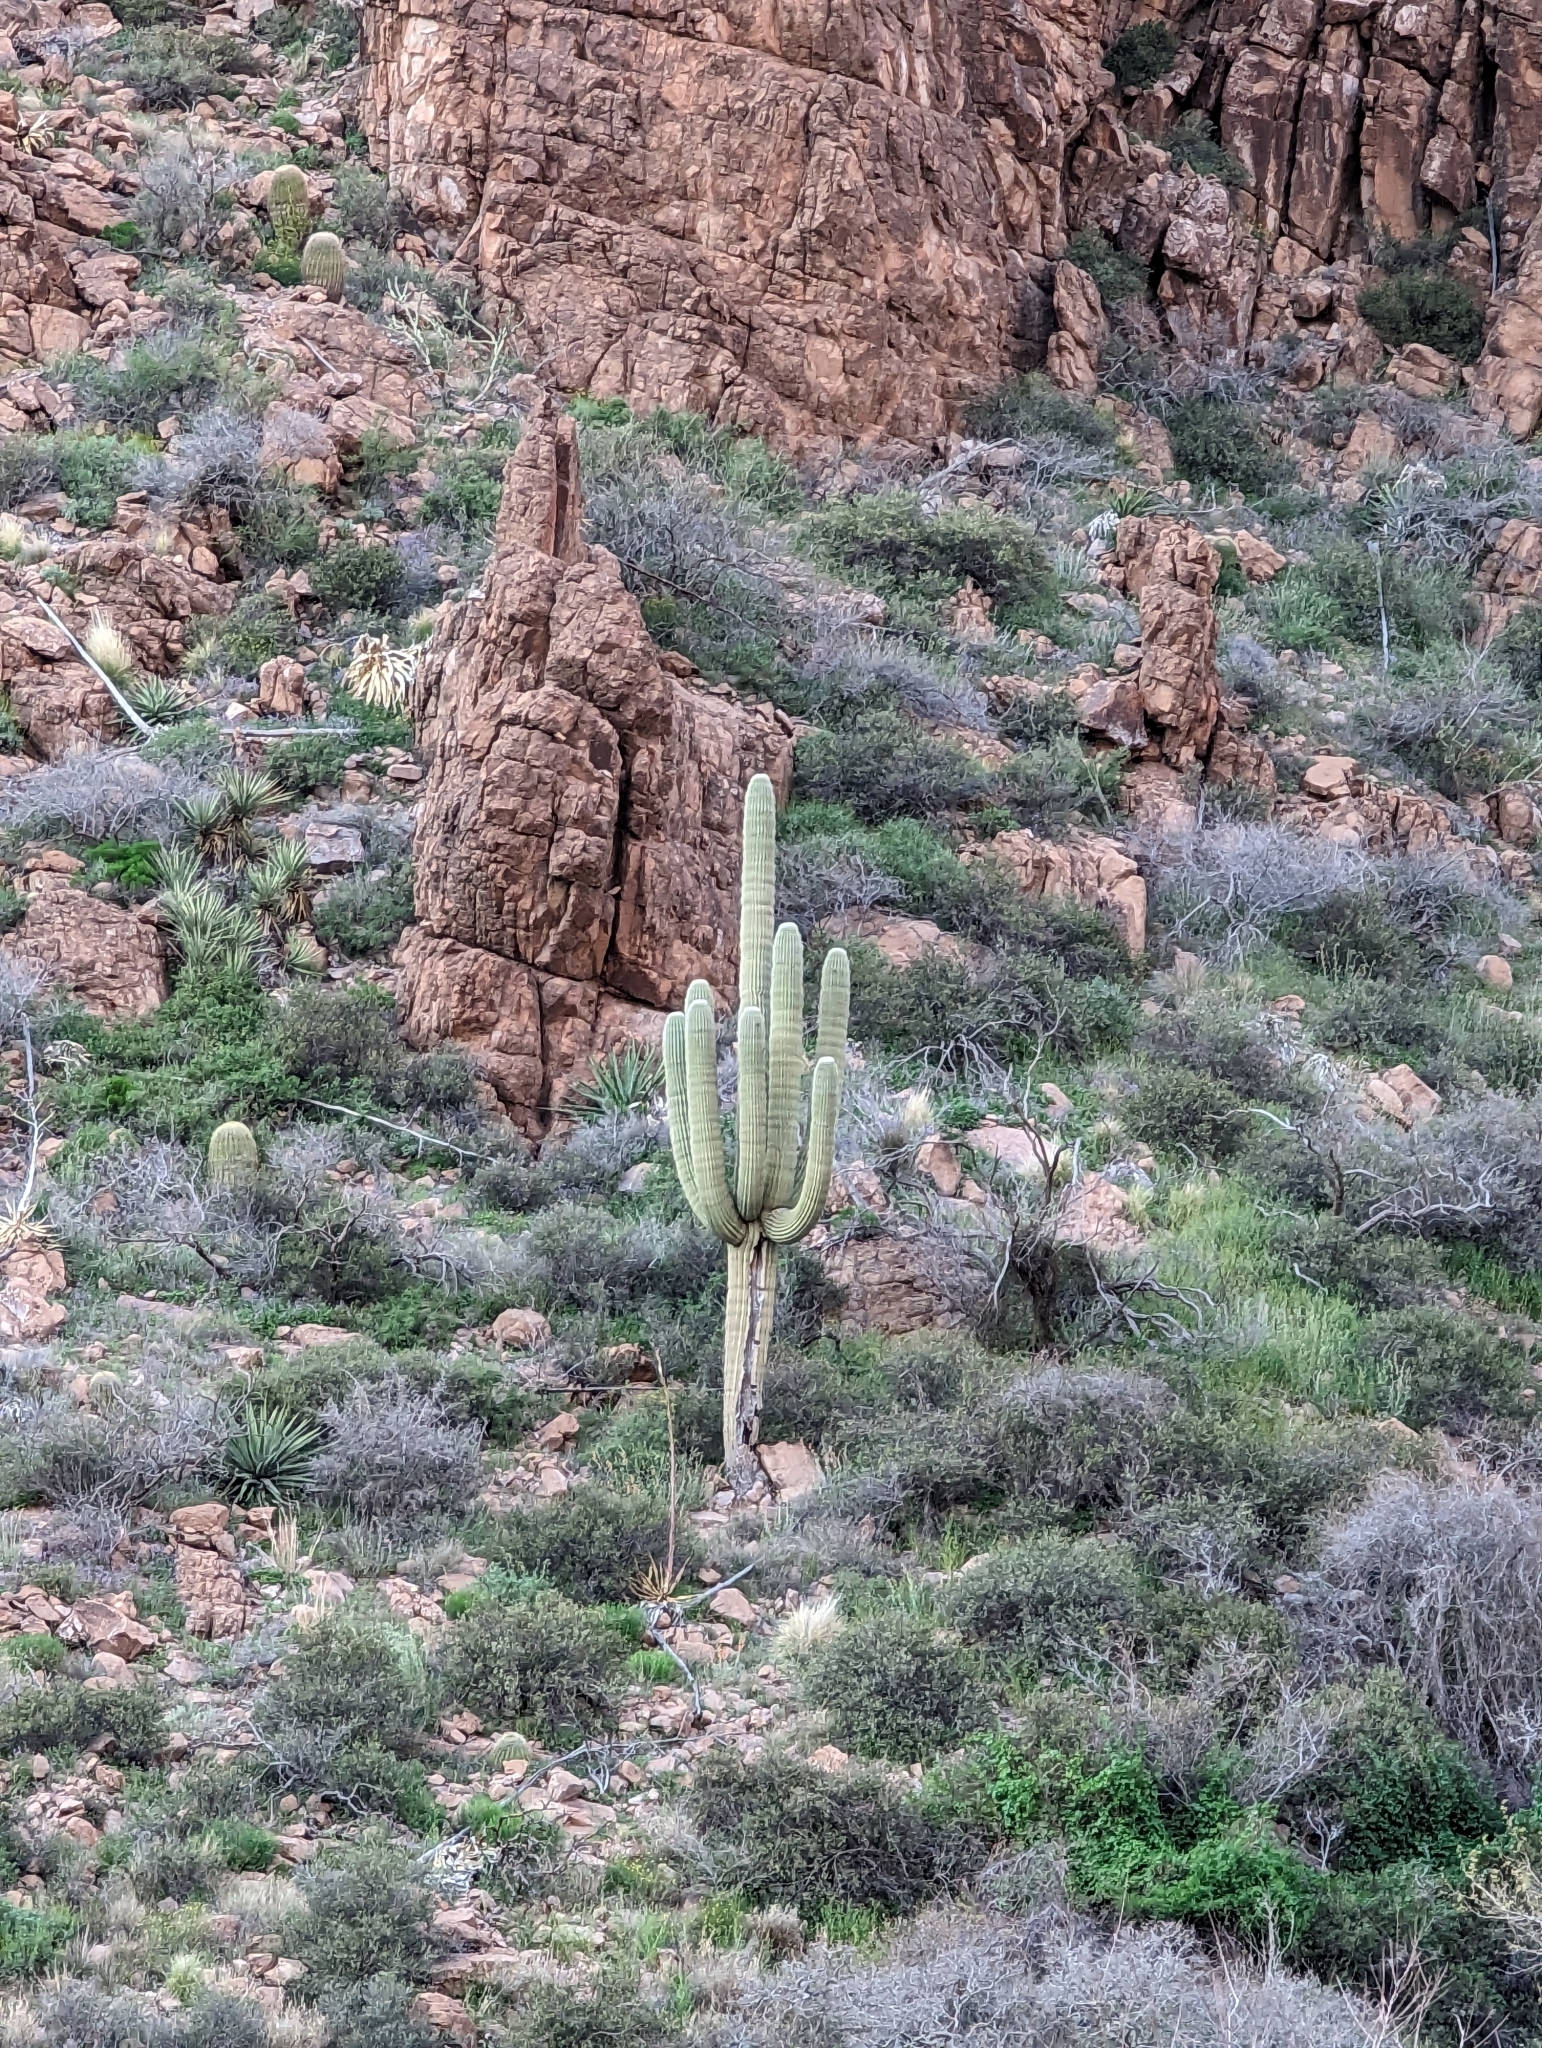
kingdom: Plantae
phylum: Tracheophyta
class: Magnoliopsida
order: Caryophyllales
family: Cactaceae
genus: Carnegiea
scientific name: Carnegiea gigantea
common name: Saguaro
